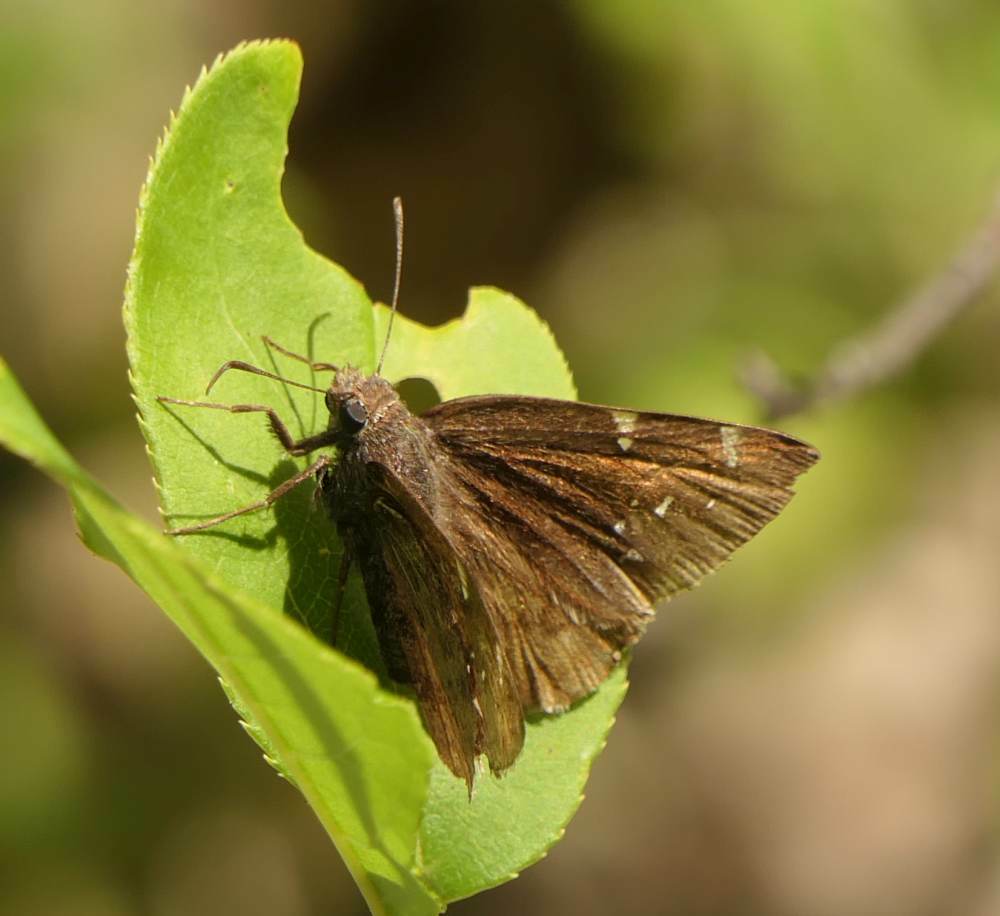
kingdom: Animalia
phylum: Arthropoda
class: Insecta
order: Lepidoptera
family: Hesperiidae
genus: Thorybes
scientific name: Thorybes pylades
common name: Northern cloudywing
